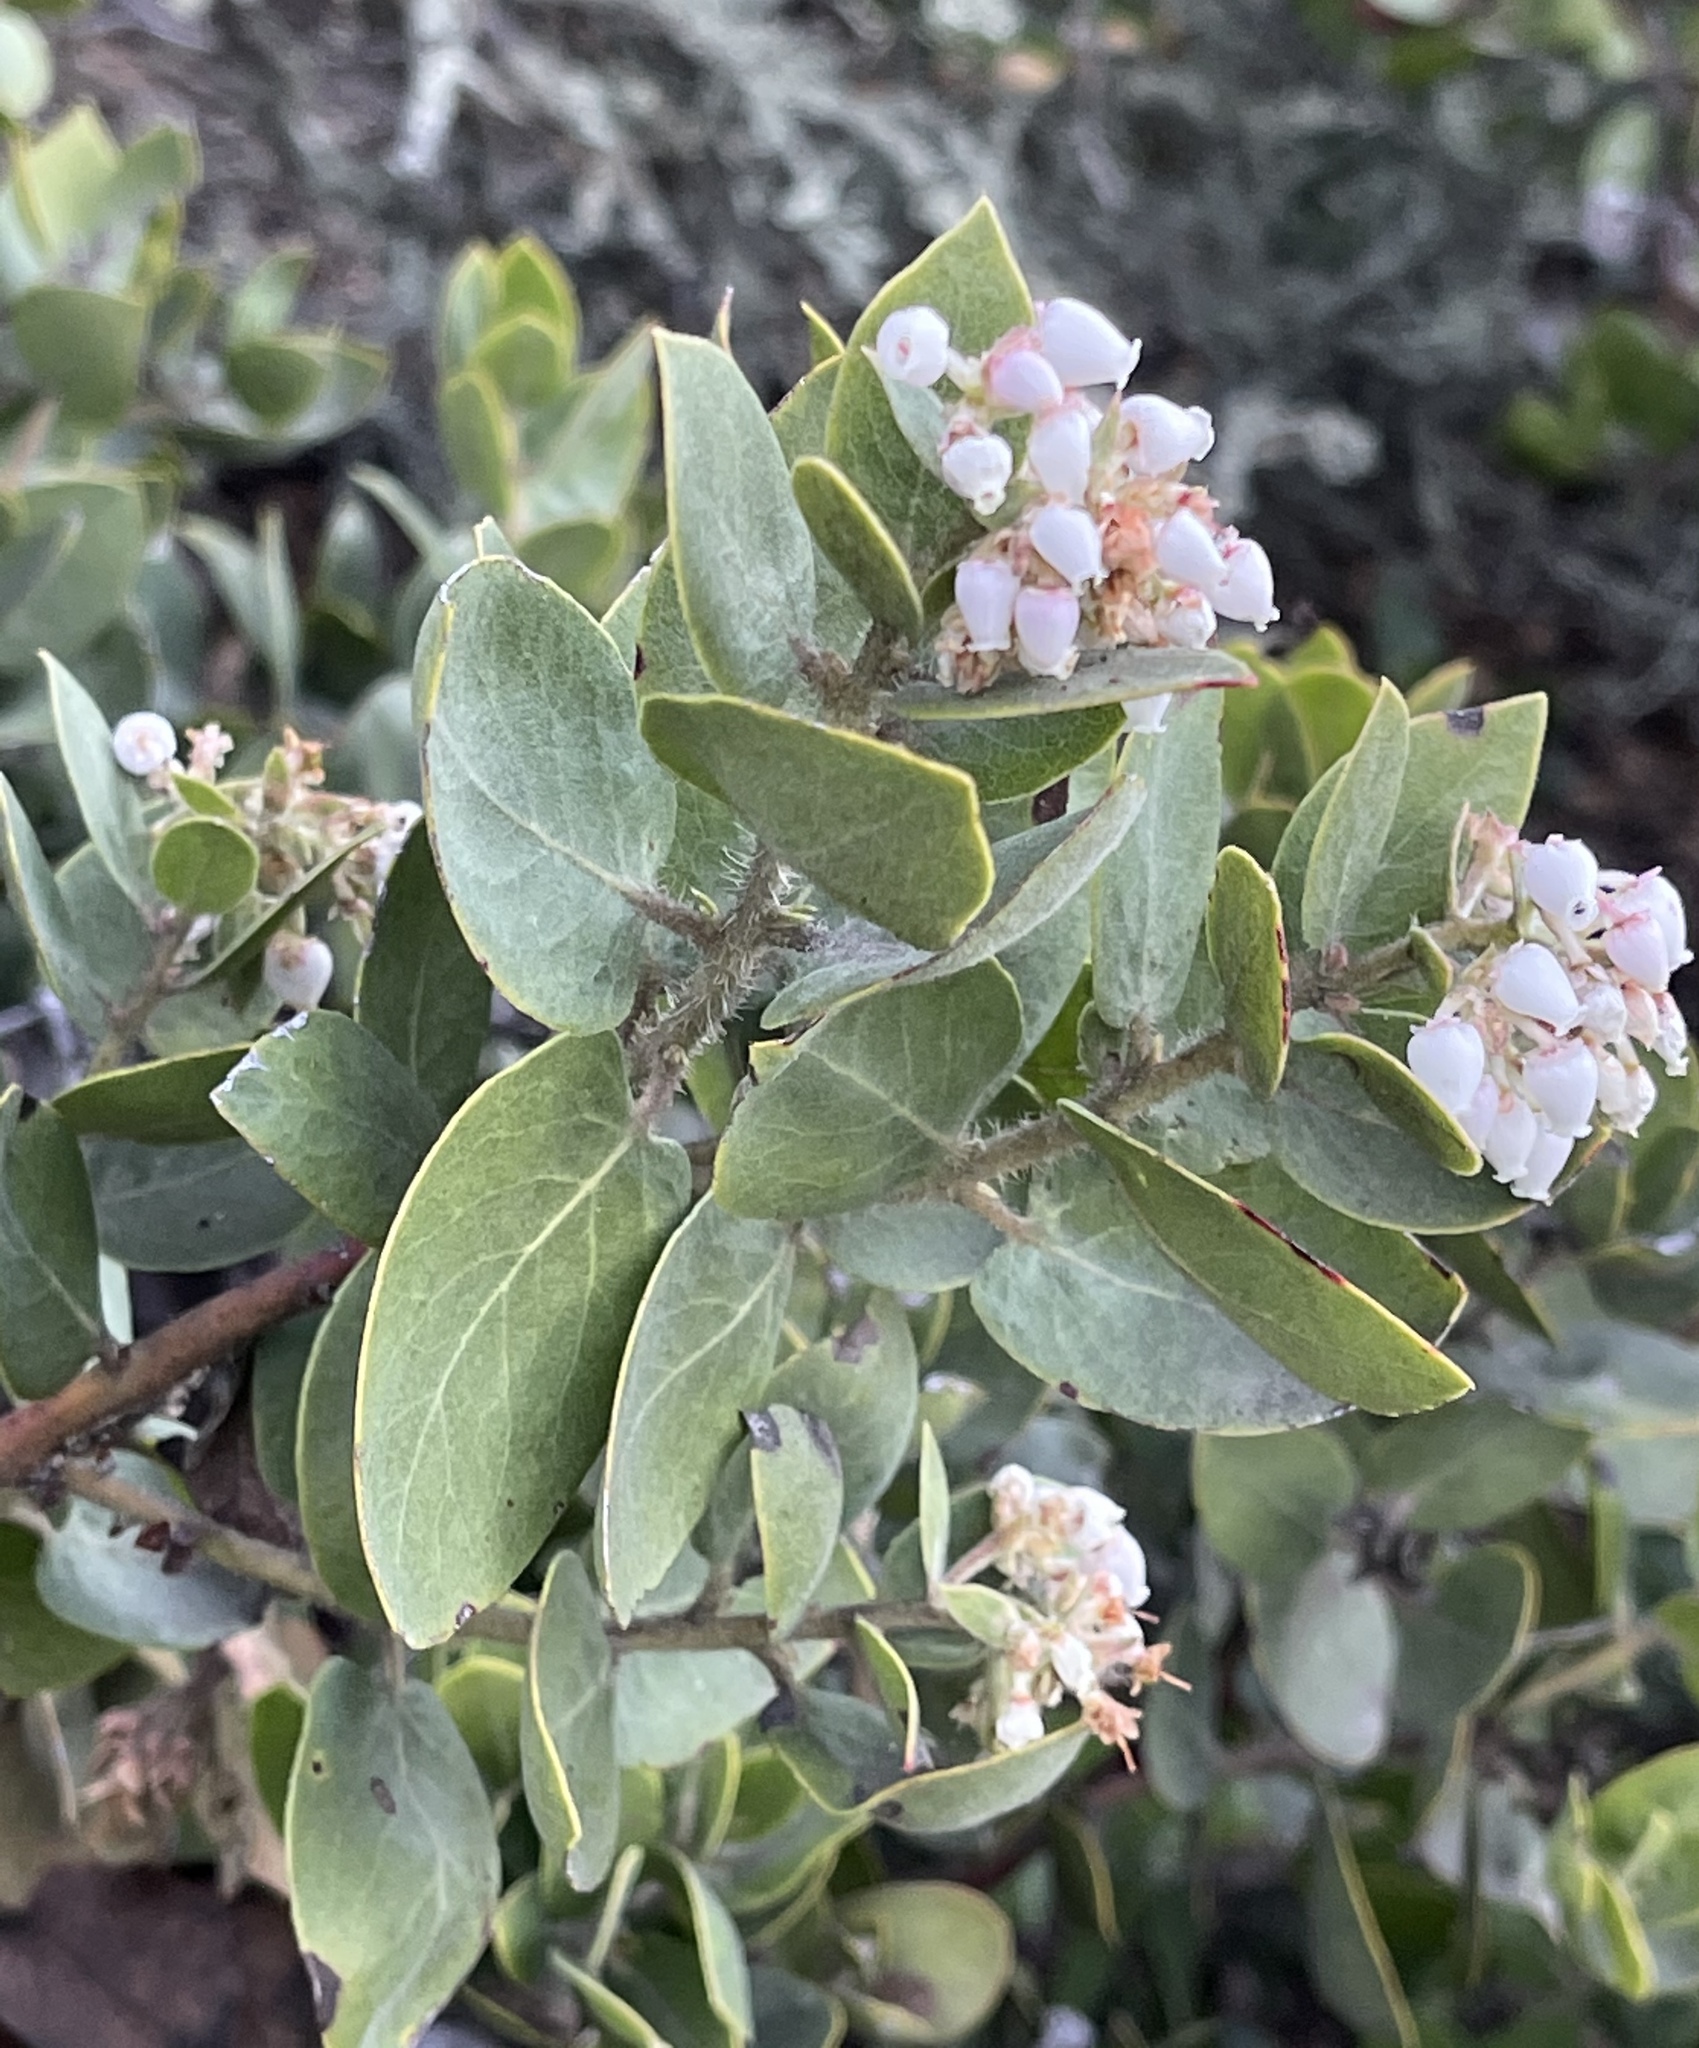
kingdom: Plantae
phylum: Tracheophyta
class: Magnoliopsida
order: Ericales
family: Ericaceae
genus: Arctostaphylos
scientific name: Arctostaphylos crustacea
